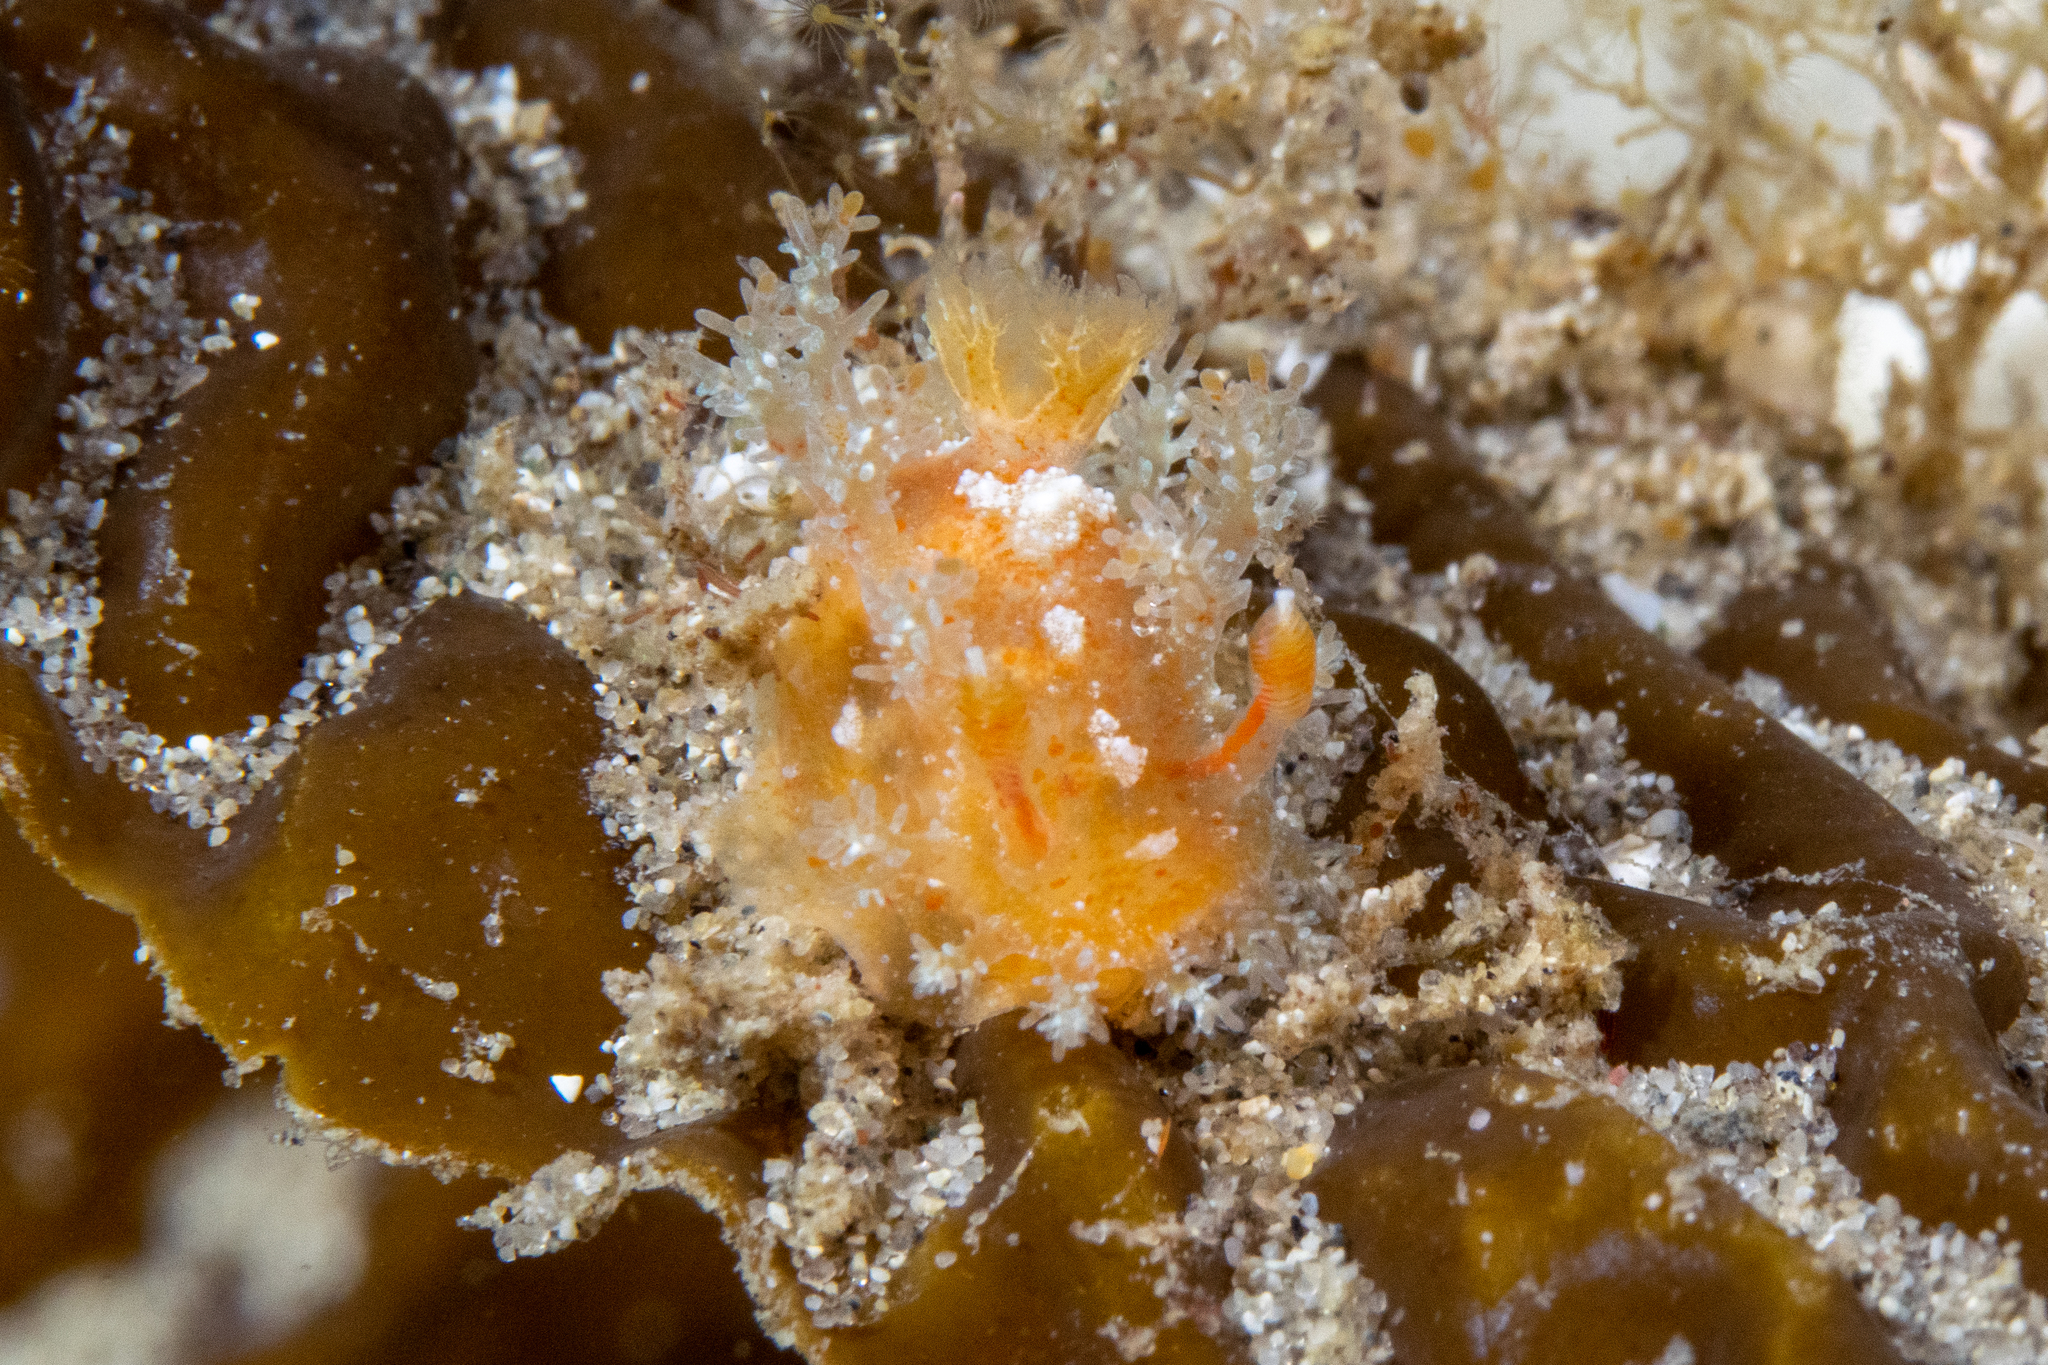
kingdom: Animalia
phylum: Mollusca
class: Gastropoda
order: Nudibranchia
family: Polyceridae
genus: Kaloplocamus
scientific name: Kaloplocamus ramosus
